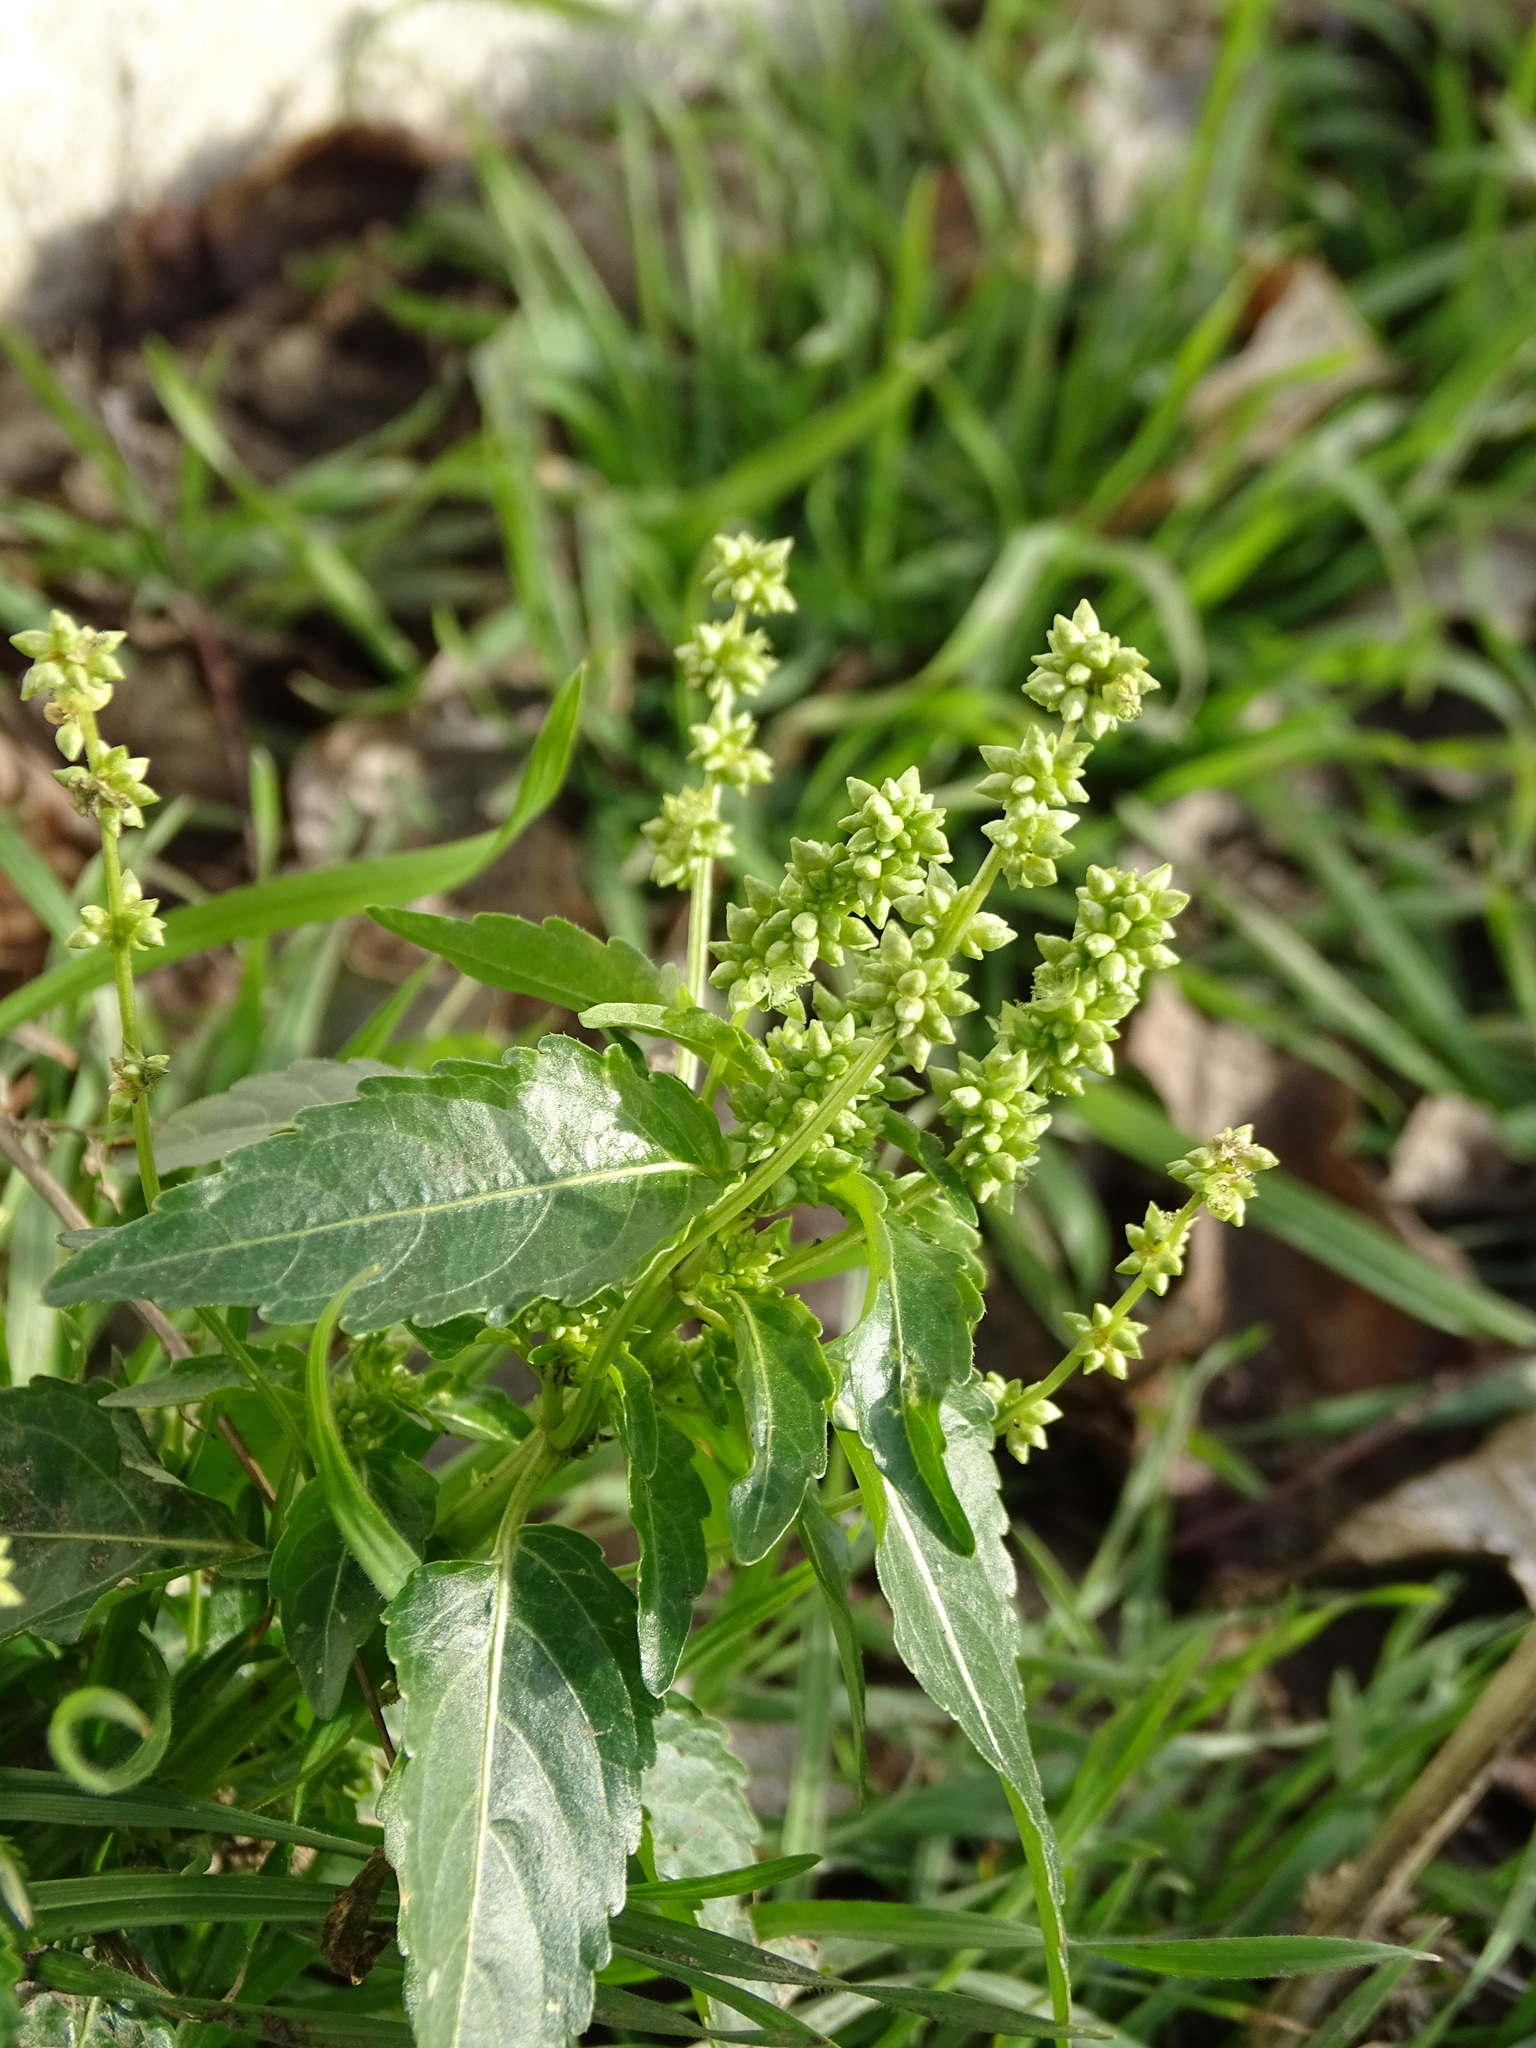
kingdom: Plantae
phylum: Tracheophyta
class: Magnoliopsida
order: Malpighiales
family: Euphorbiaceae
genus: Mercurialis
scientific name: Mercurialis annua
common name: Annual mercury
